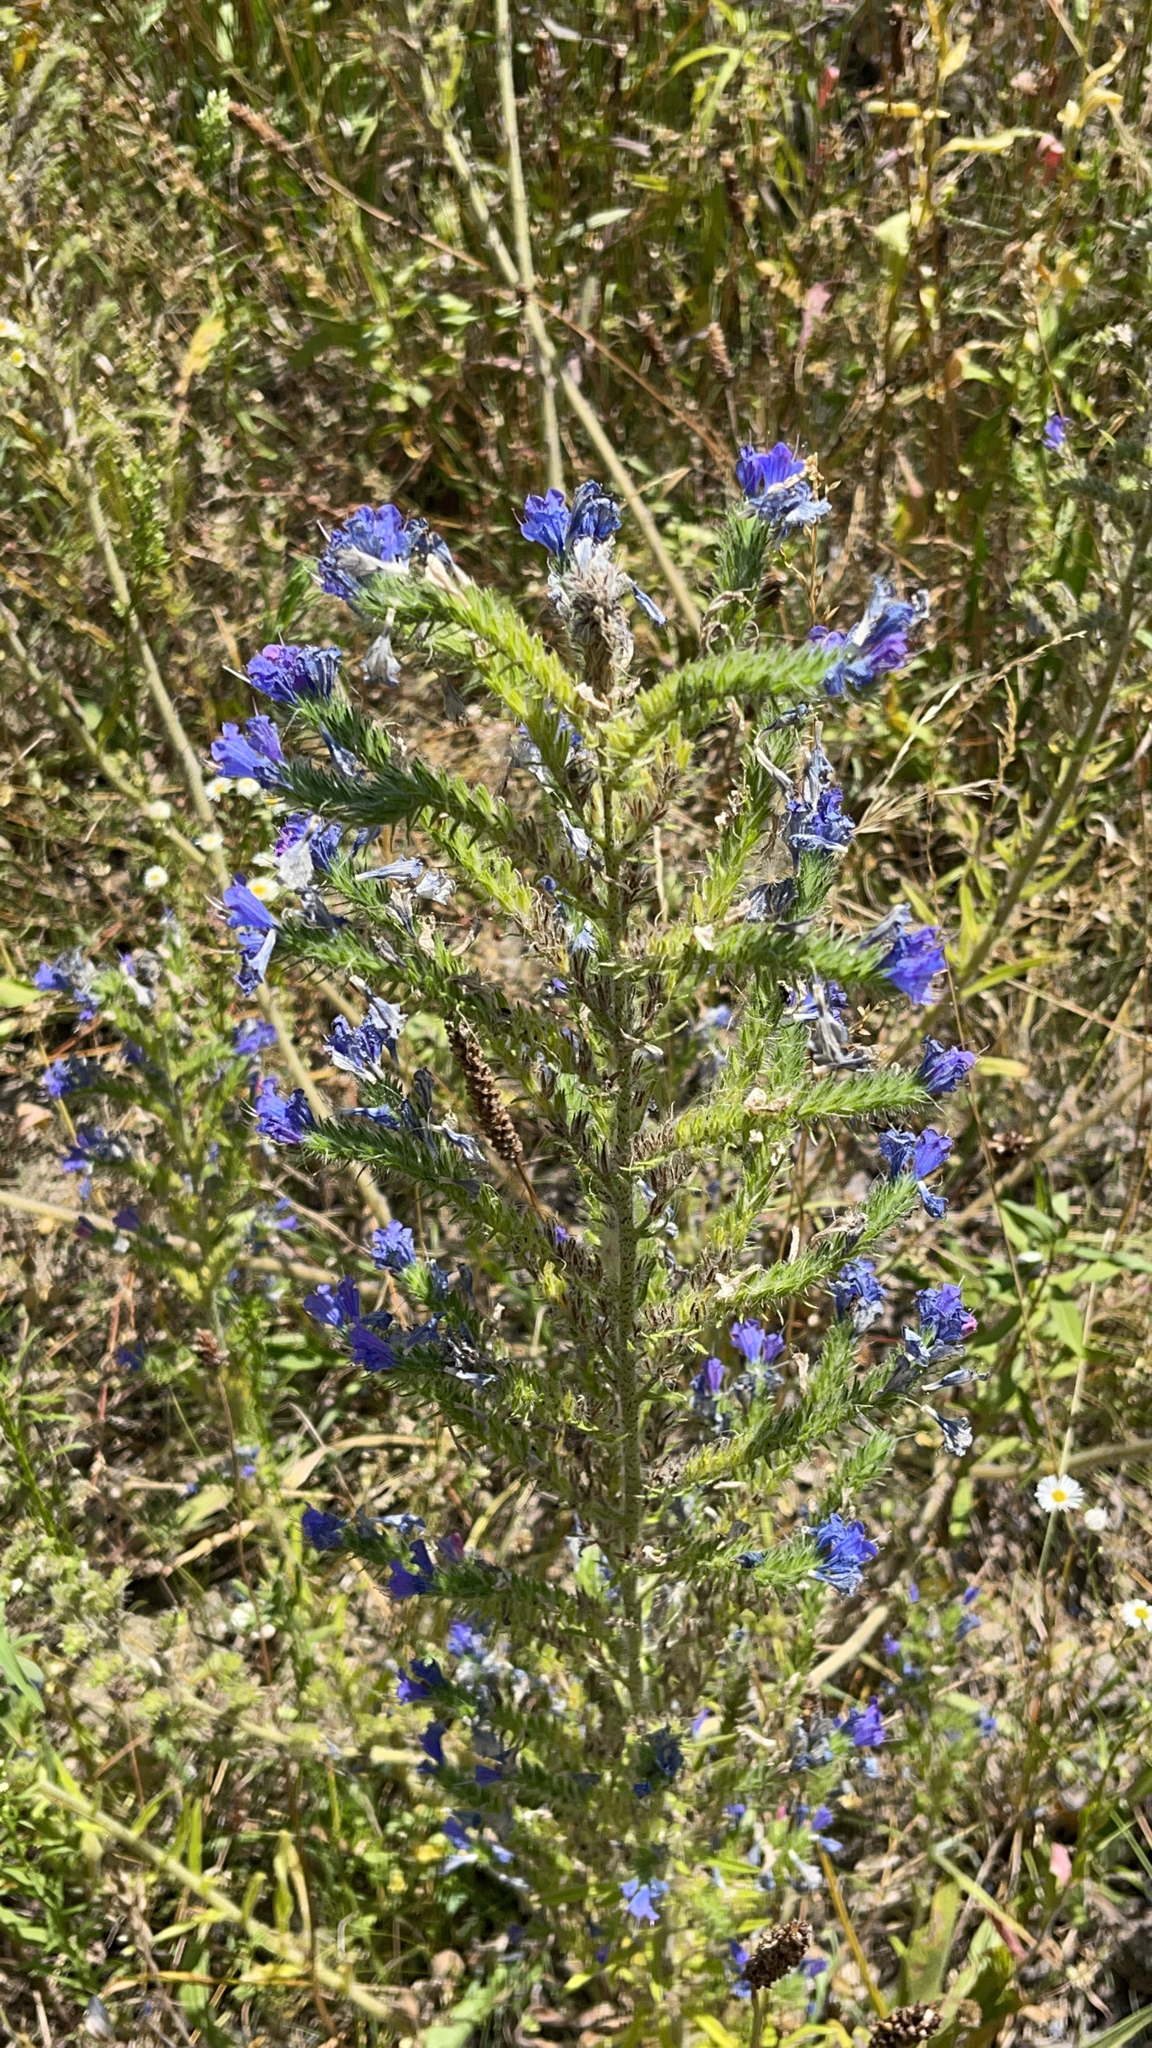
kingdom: Plantae
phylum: Tracheophyta
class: Magnoliopsida
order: Boraginales
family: Boraginaceae
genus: Echium
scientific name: Echium vulgare
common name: Common viper's bugloss
